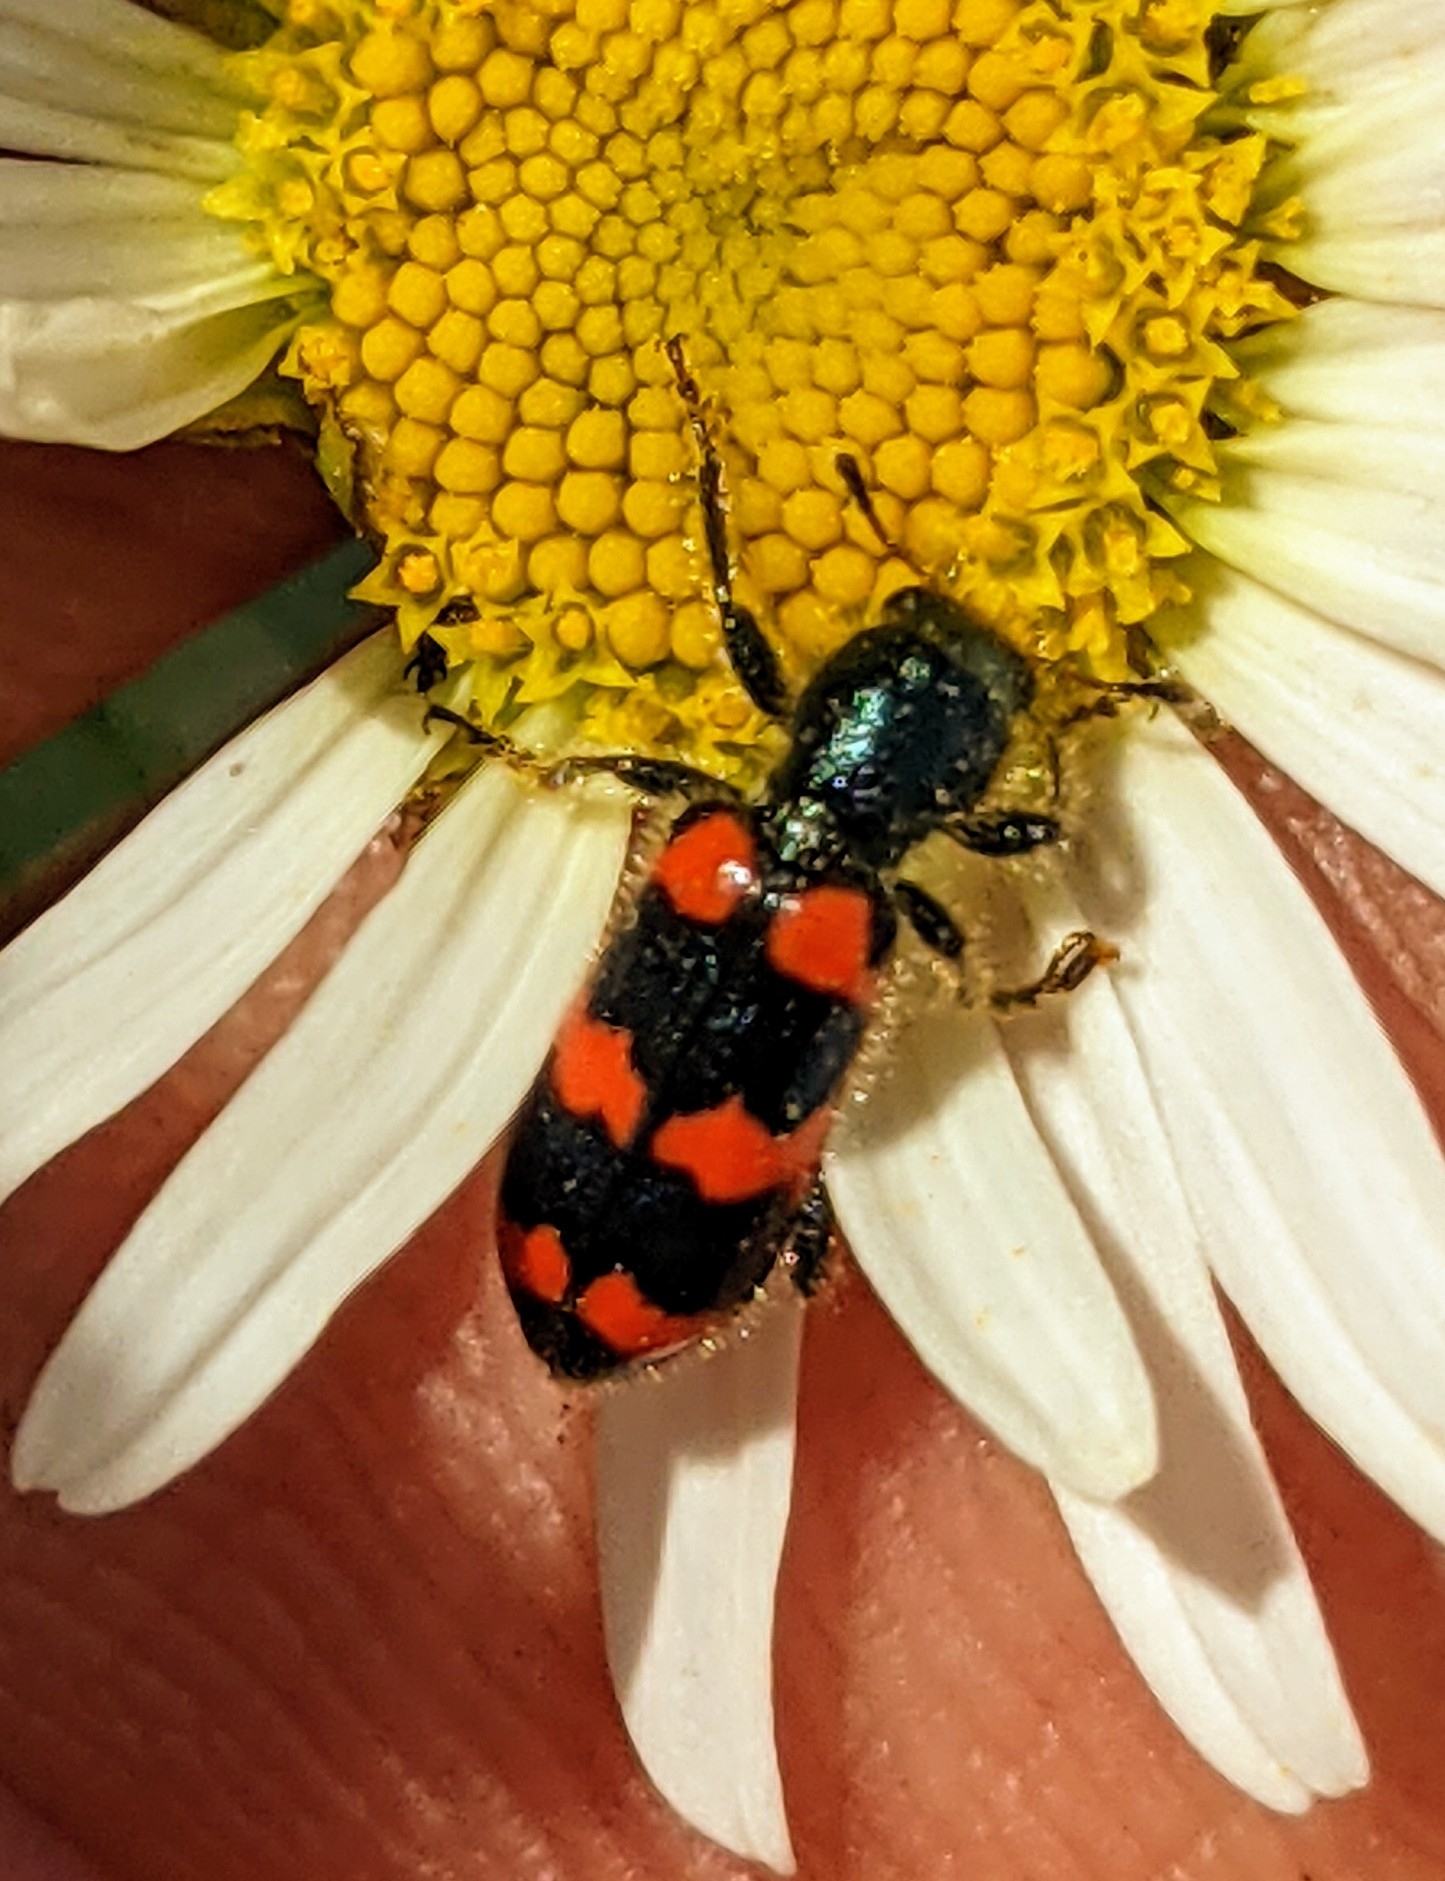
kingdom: Animalia
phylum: Arthropoda
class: Insecta
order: Coleoptera
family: Cleridae
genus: Trichodes
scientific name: Trichodes nutalli
